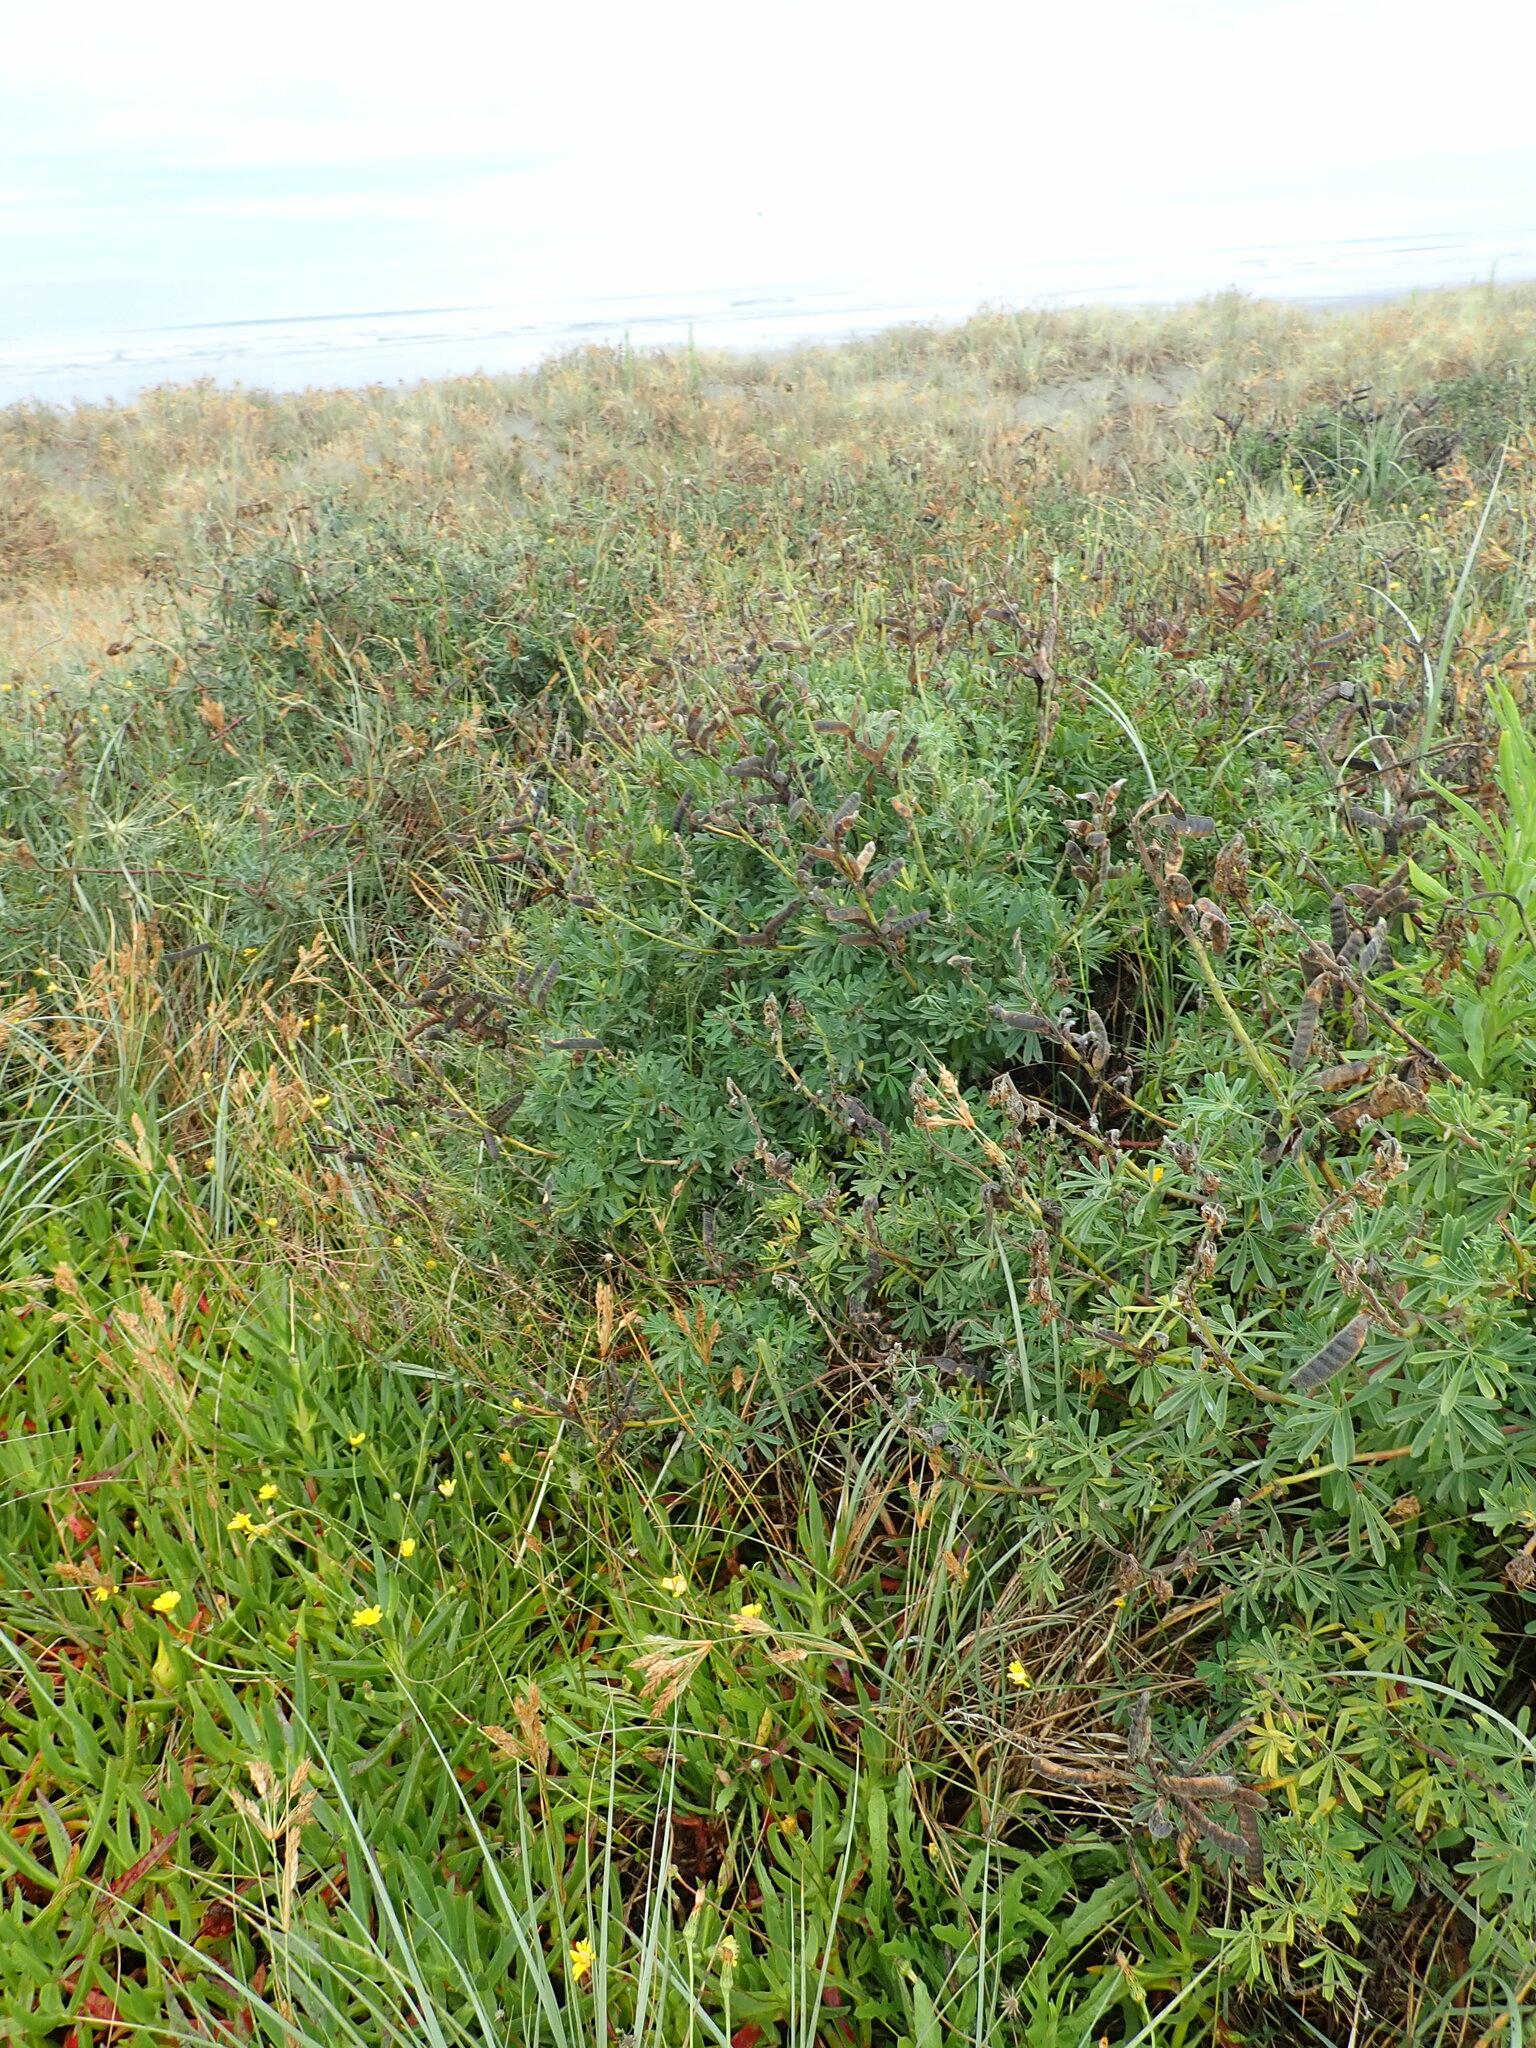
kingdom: Plantae
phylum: Tracheophyta
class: Magnoliopsida
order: Fabales
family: Fabaceae
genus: Lupinus
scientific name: Lupinus arboreus
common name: Yellow bush lupine
